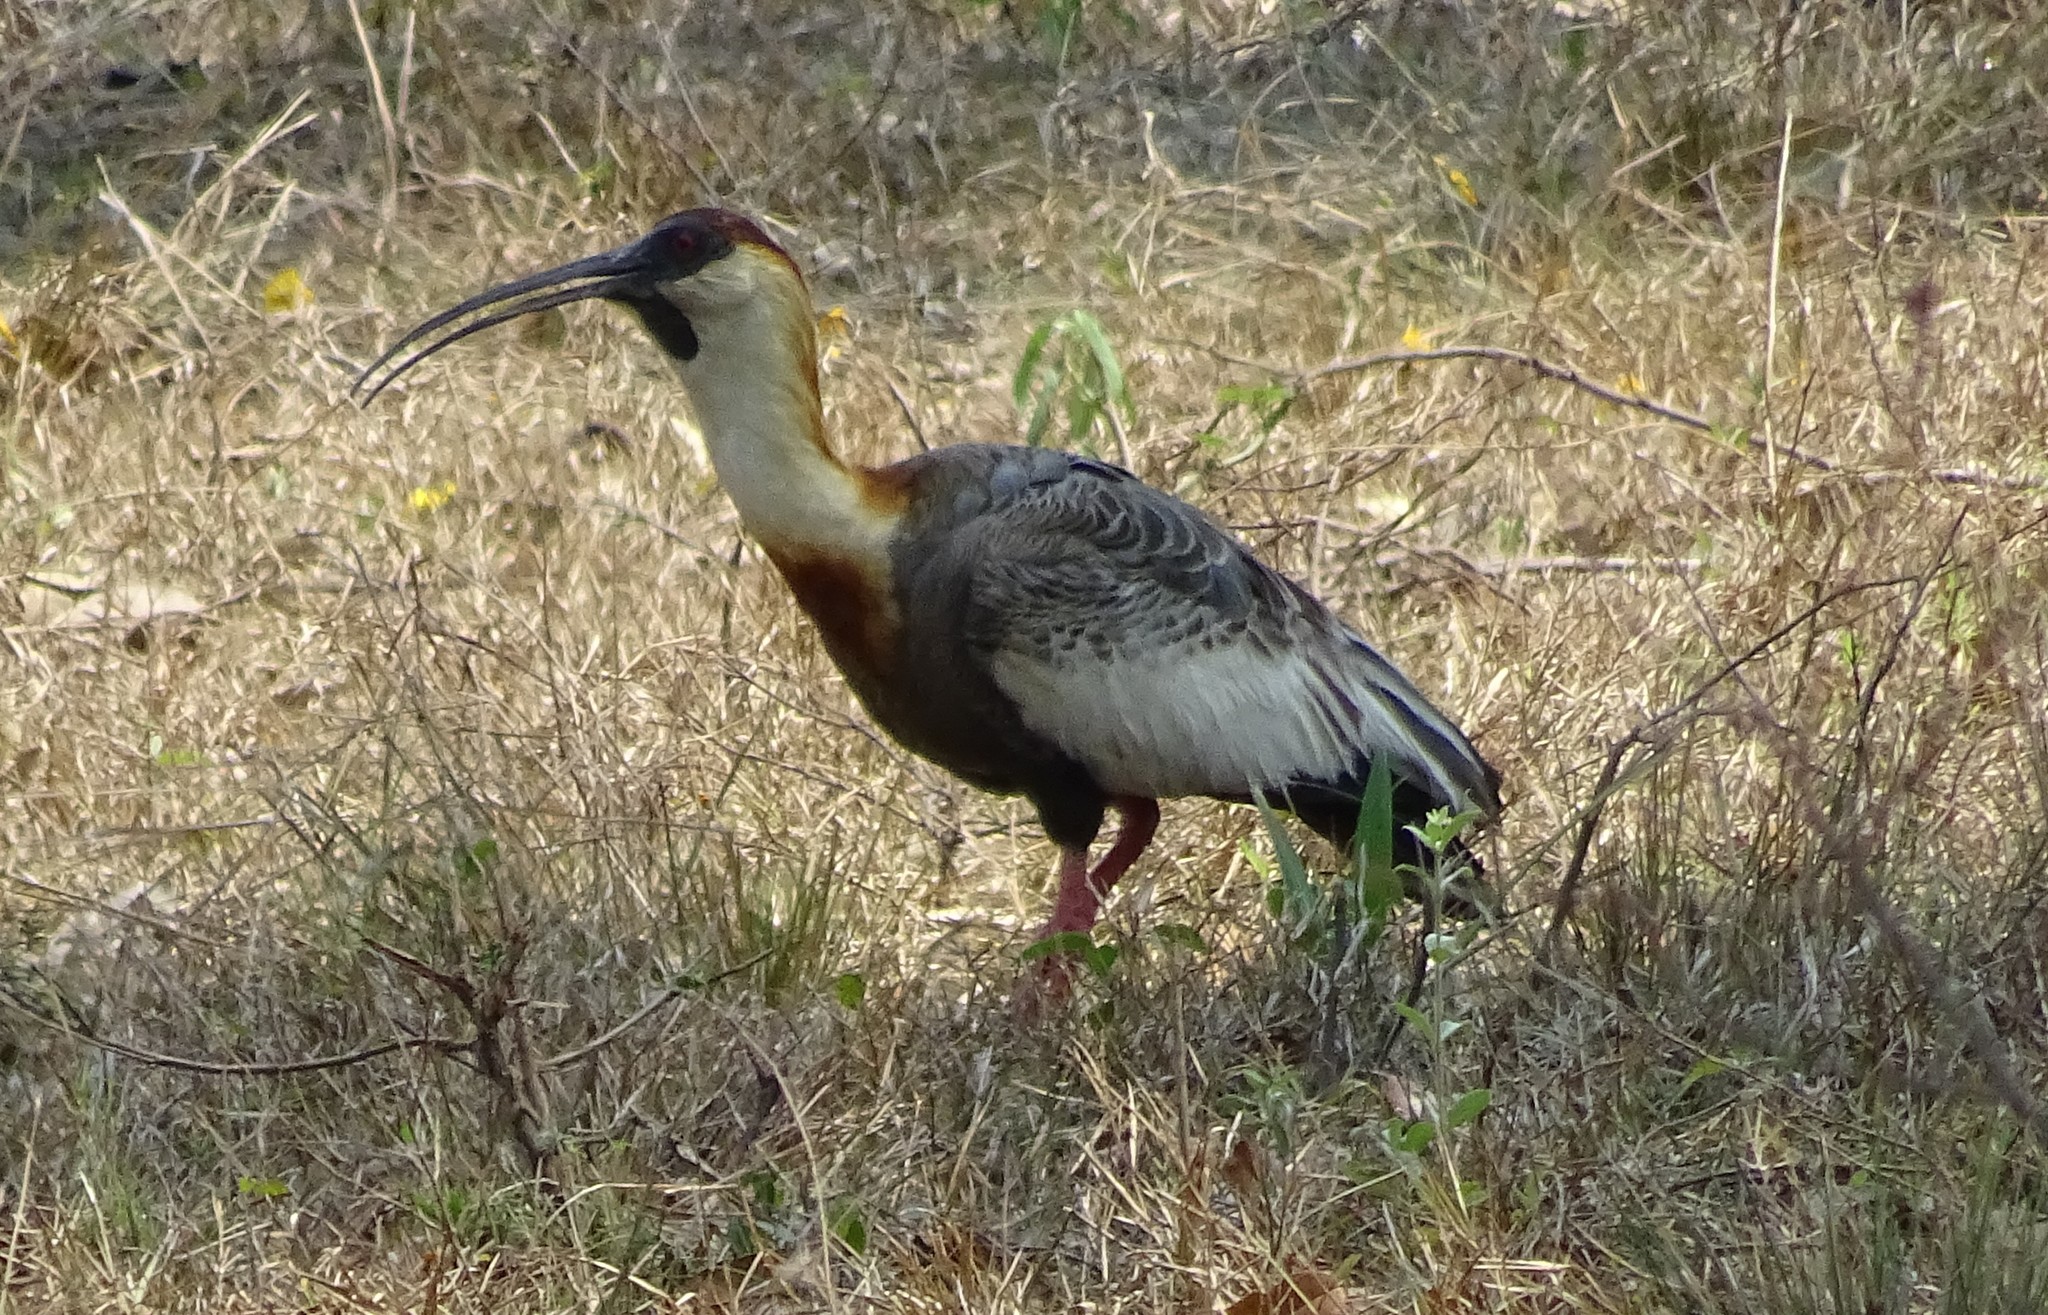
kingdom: Animalia
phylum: Chordata
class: Aves
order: Pelecaniformes
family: Threskiornithidae
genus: Theristicus
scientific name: Theristicus caudatus
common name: Buff-necked ibis
